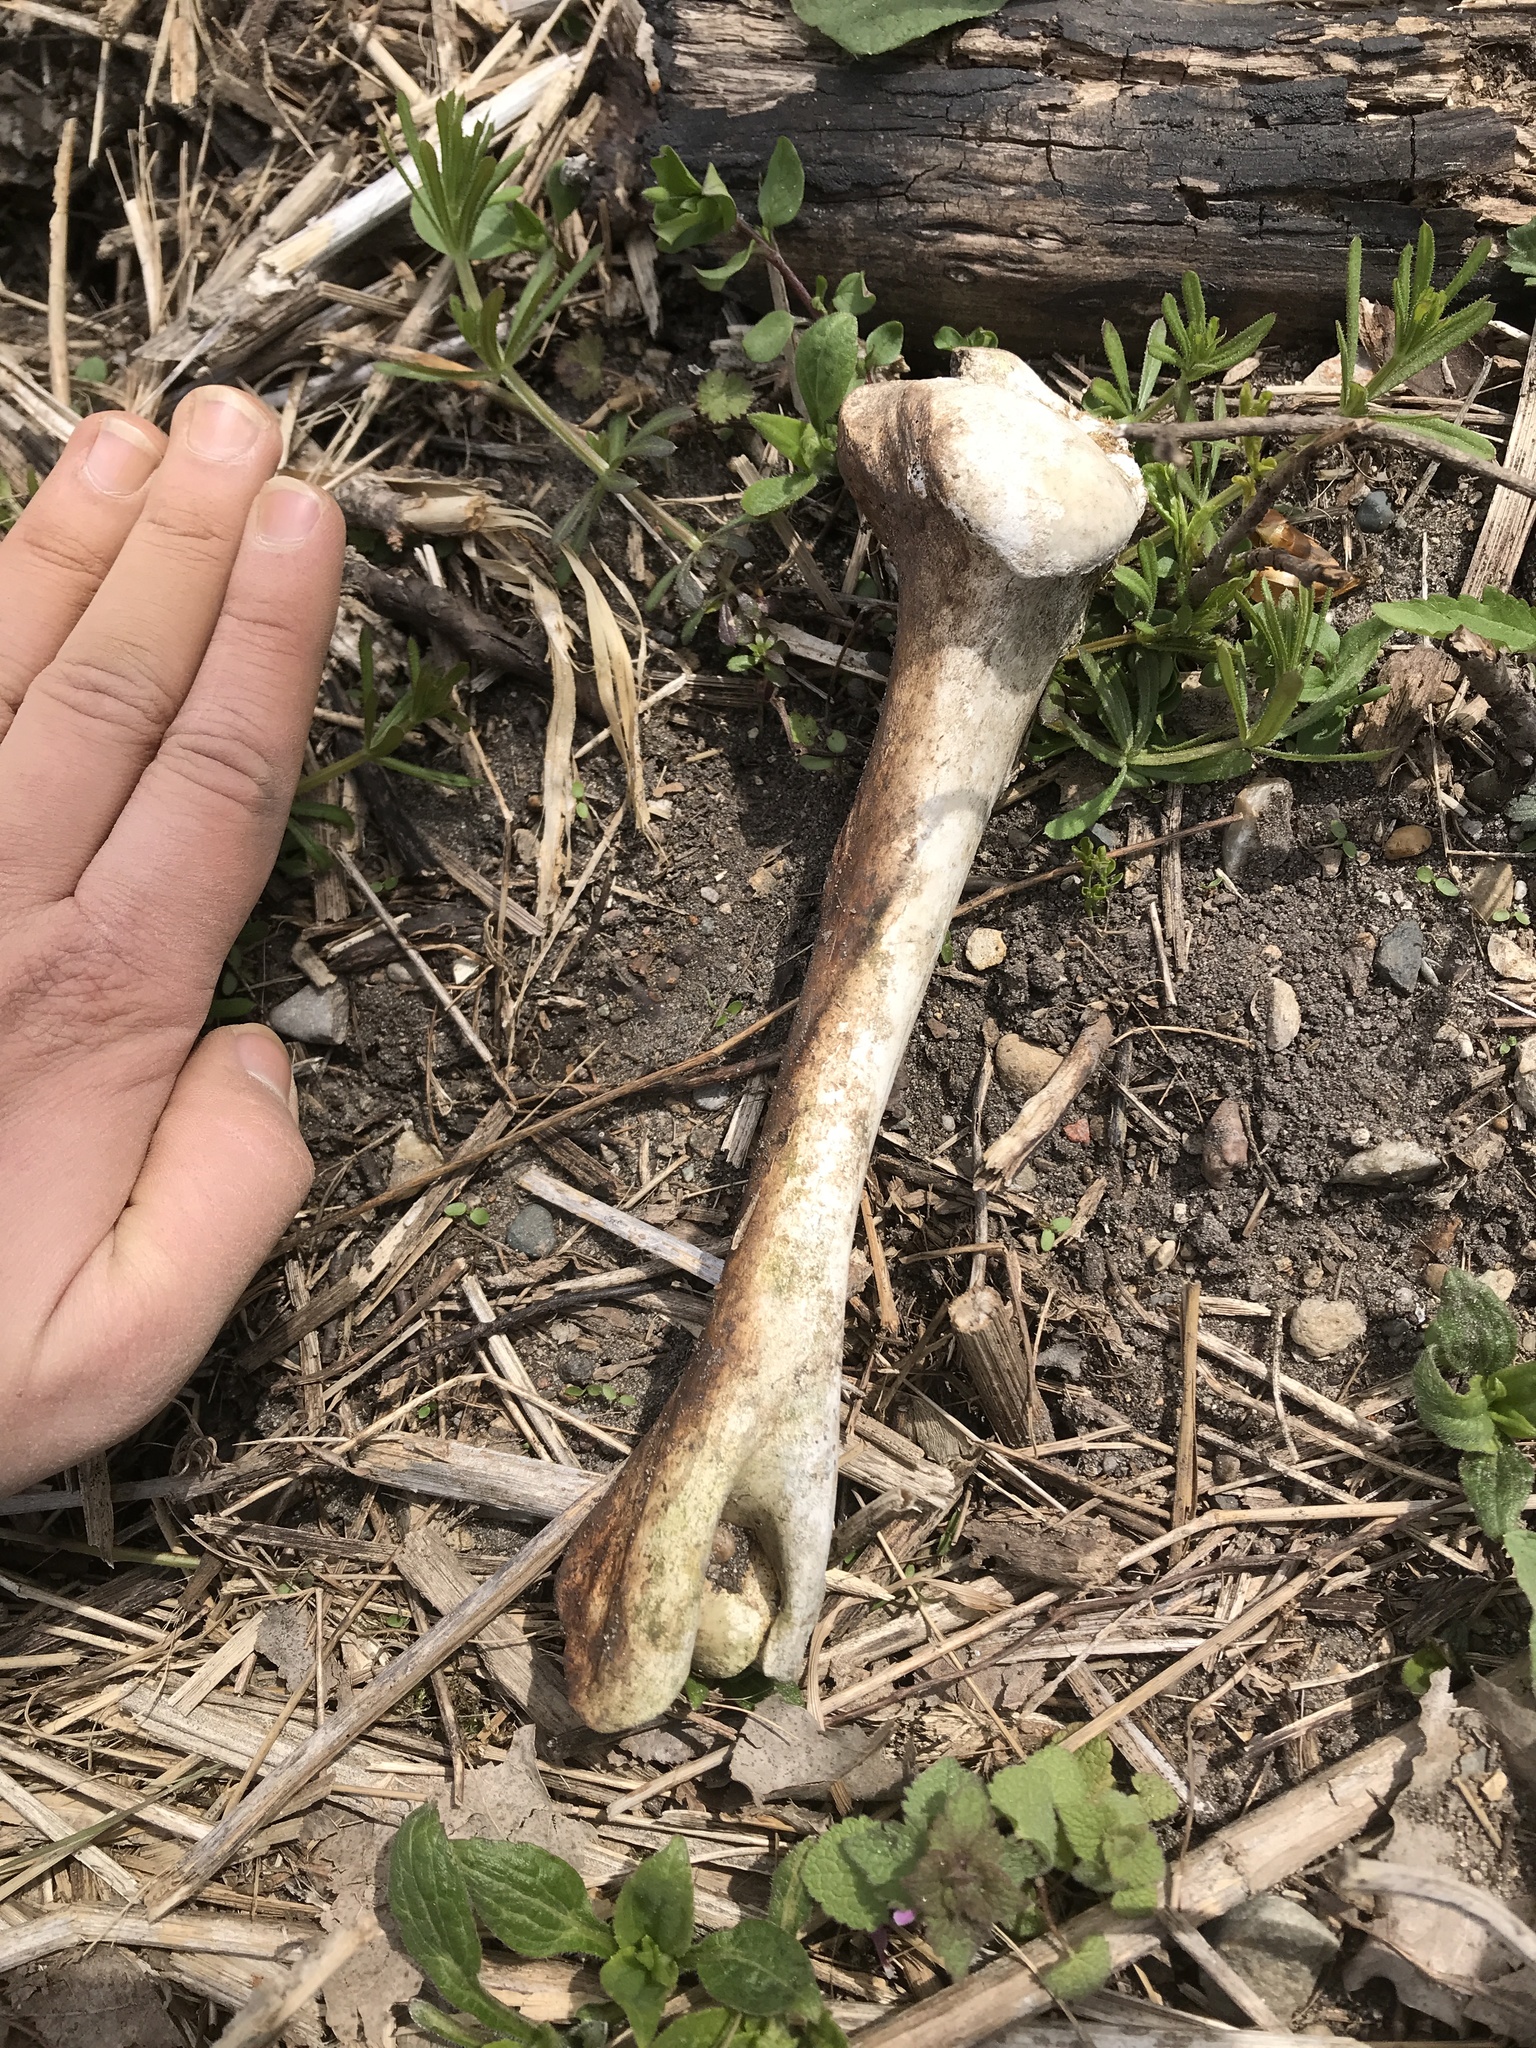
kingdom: Animalia
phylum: Chordata
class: Mammalia
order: Artiodactyla
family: Cervidae
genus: Odocoileus
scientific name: Odocoileus virginianus
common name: White-tailed deer
